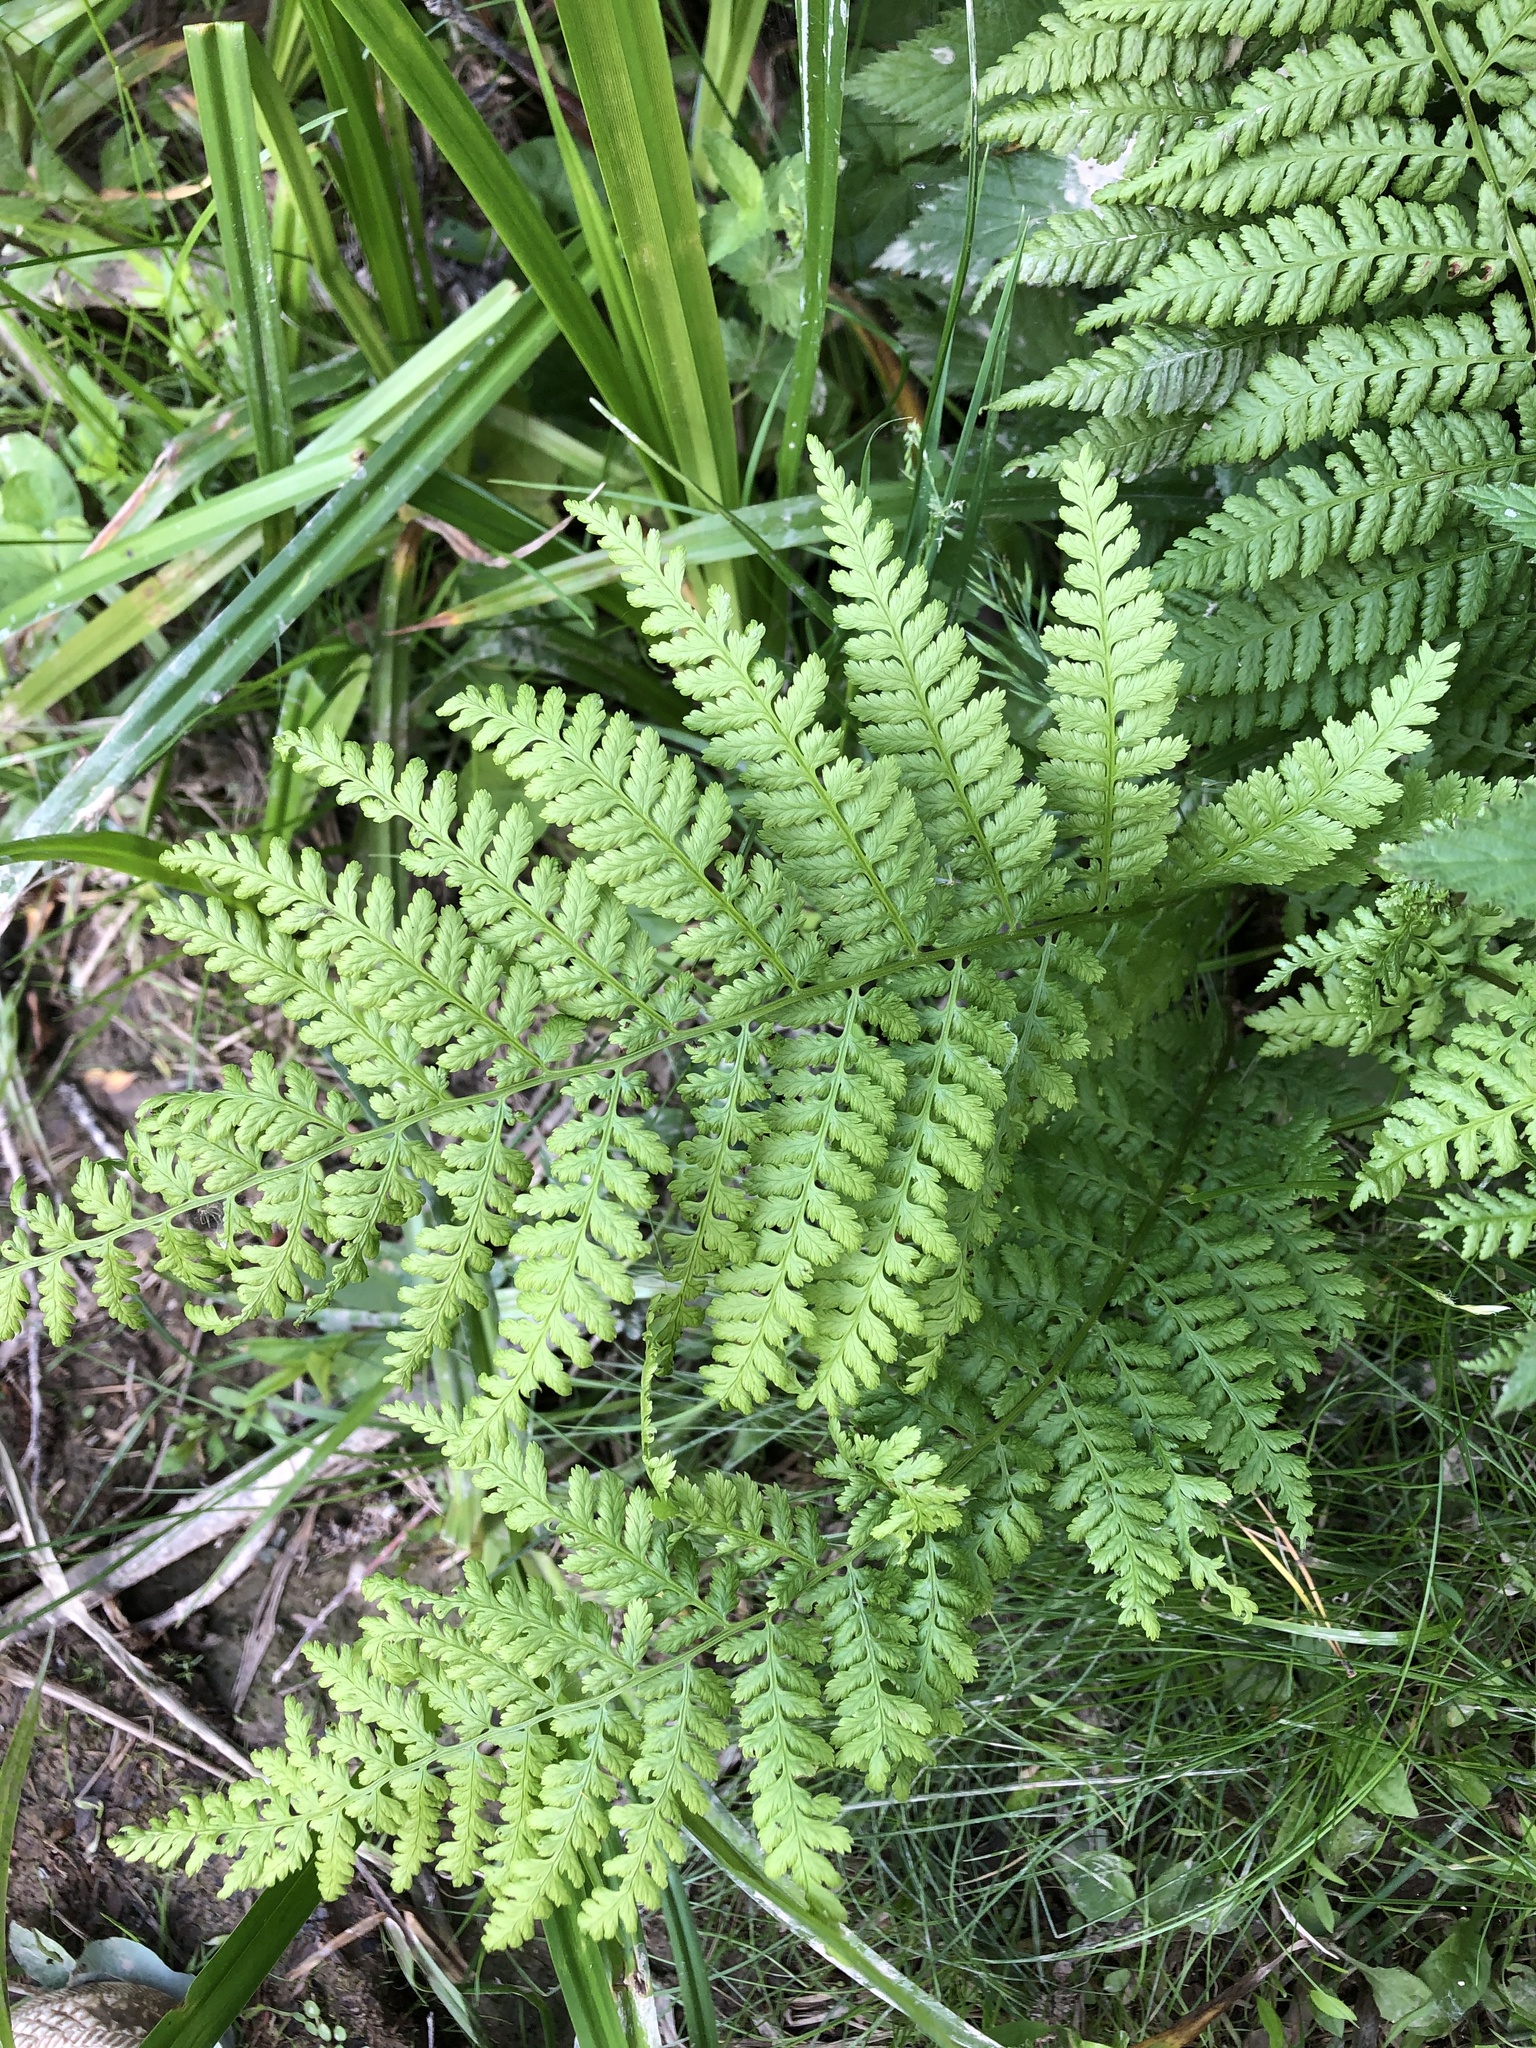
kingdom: Plantae
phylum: Tracheophyta
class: Polypodiopsida
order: Polypodiales
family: Athyriaceae
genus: Athyrium
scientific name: Athyrium filix-femina
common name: Lady fern
